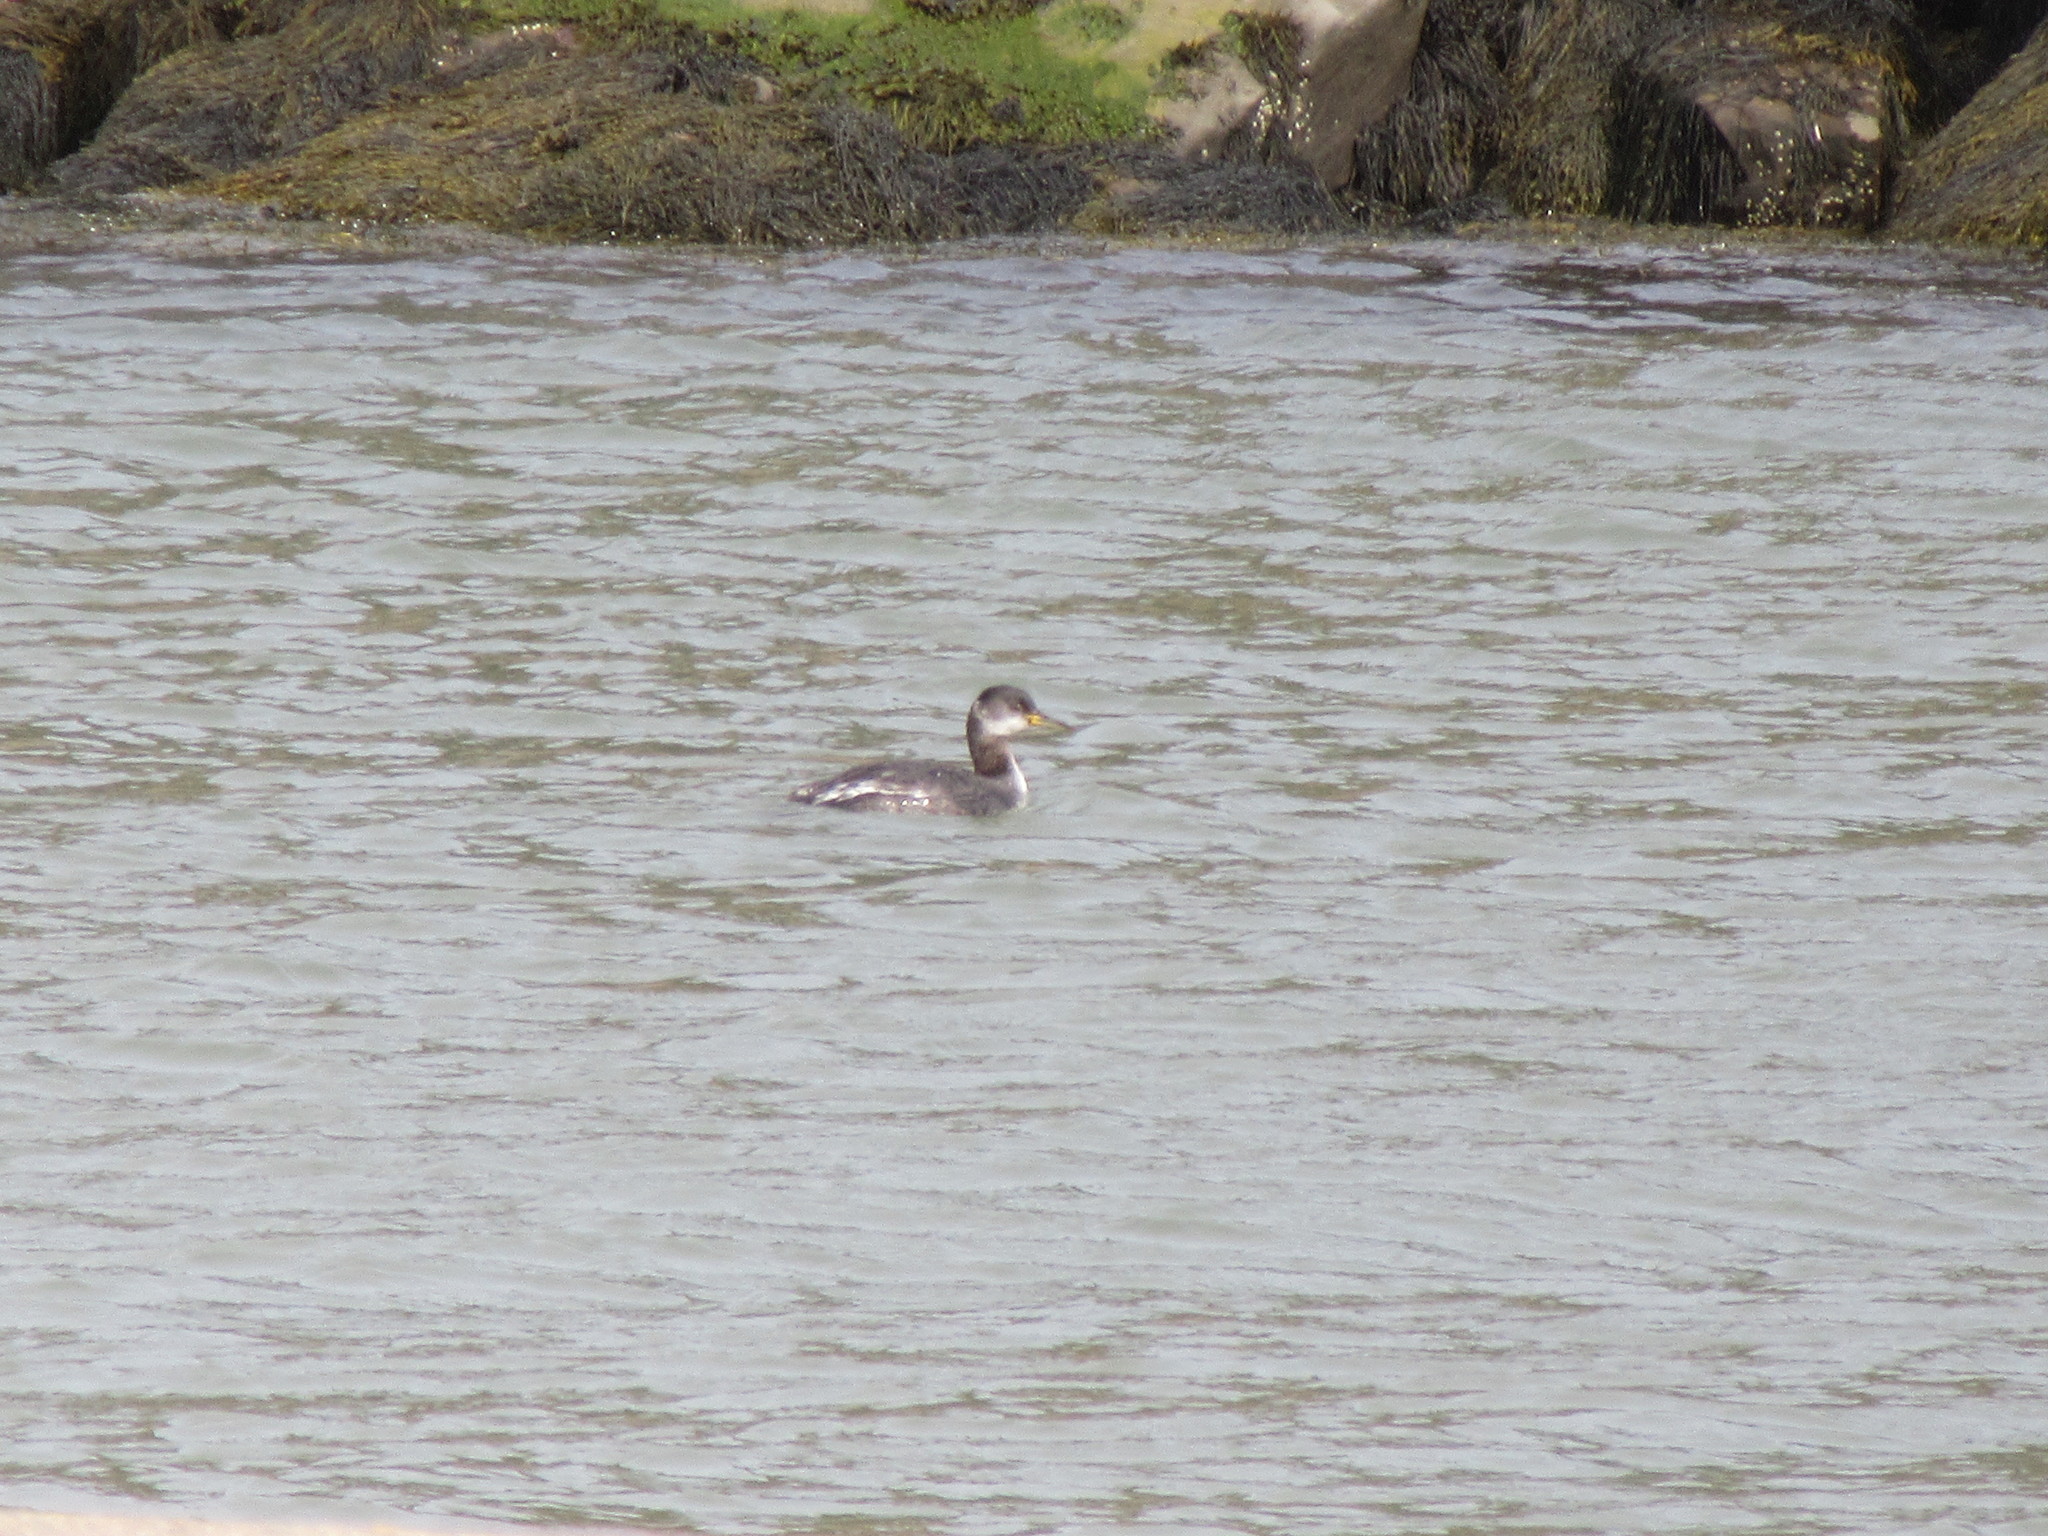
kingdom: Animalia
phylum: Chordata
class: Aves
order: Podicipediformes
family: Podicipedidae
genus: Podiceps
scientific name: Podiceps grisegena
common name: Red-necked grebe
